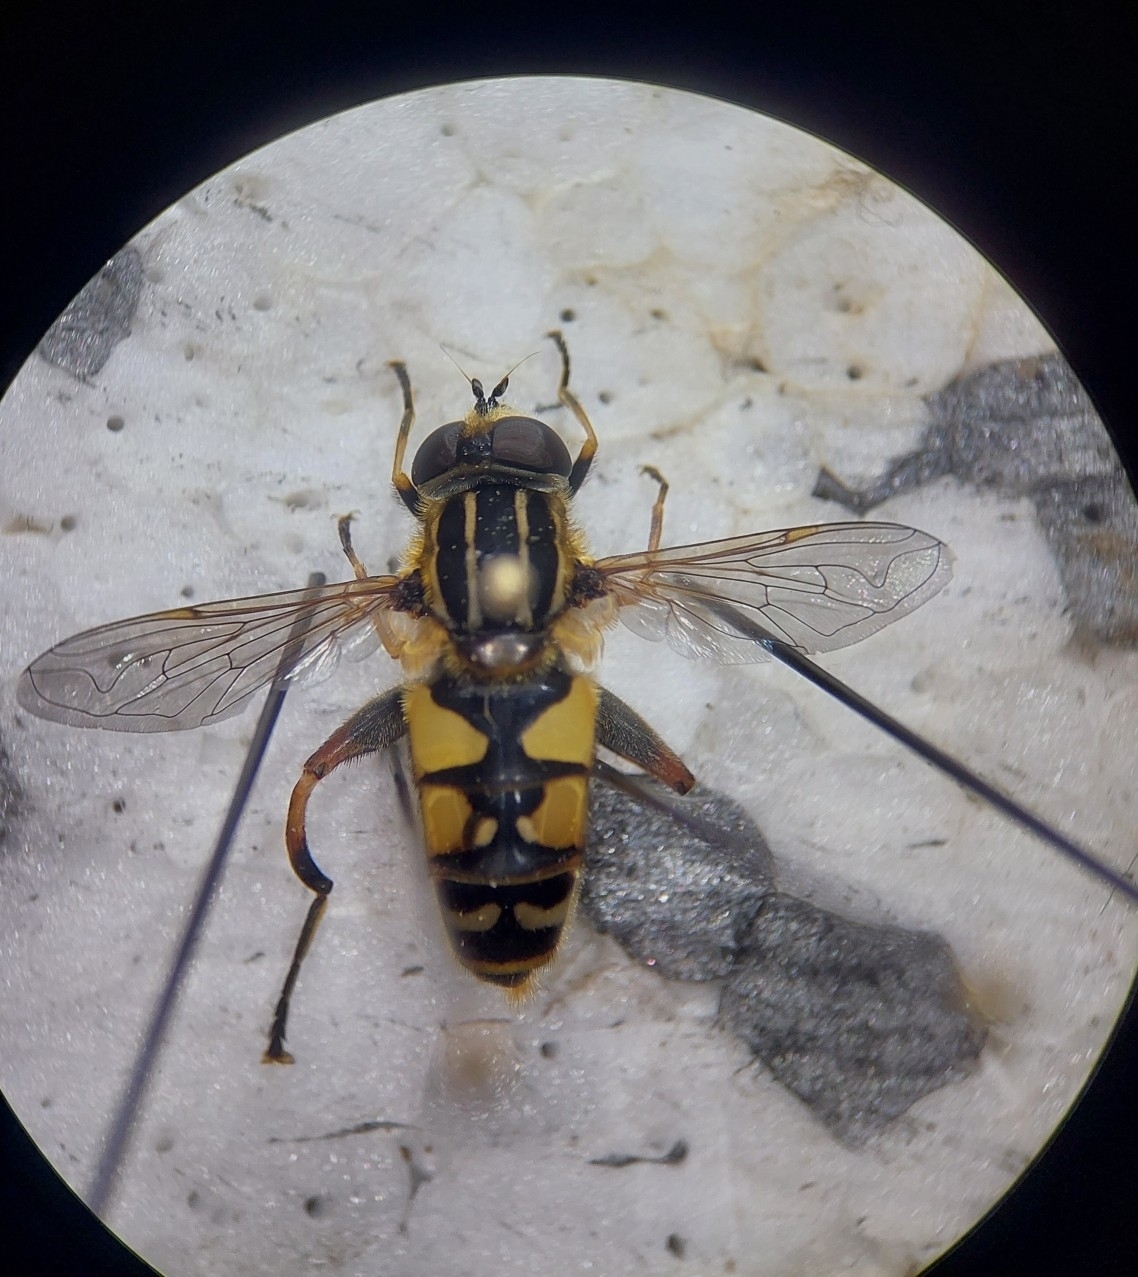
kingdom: Animalia
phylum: Arthropoda
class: Insecta
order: Diptera
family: Syrphidae
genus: Helophilus
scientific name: Helophilus pendulus
